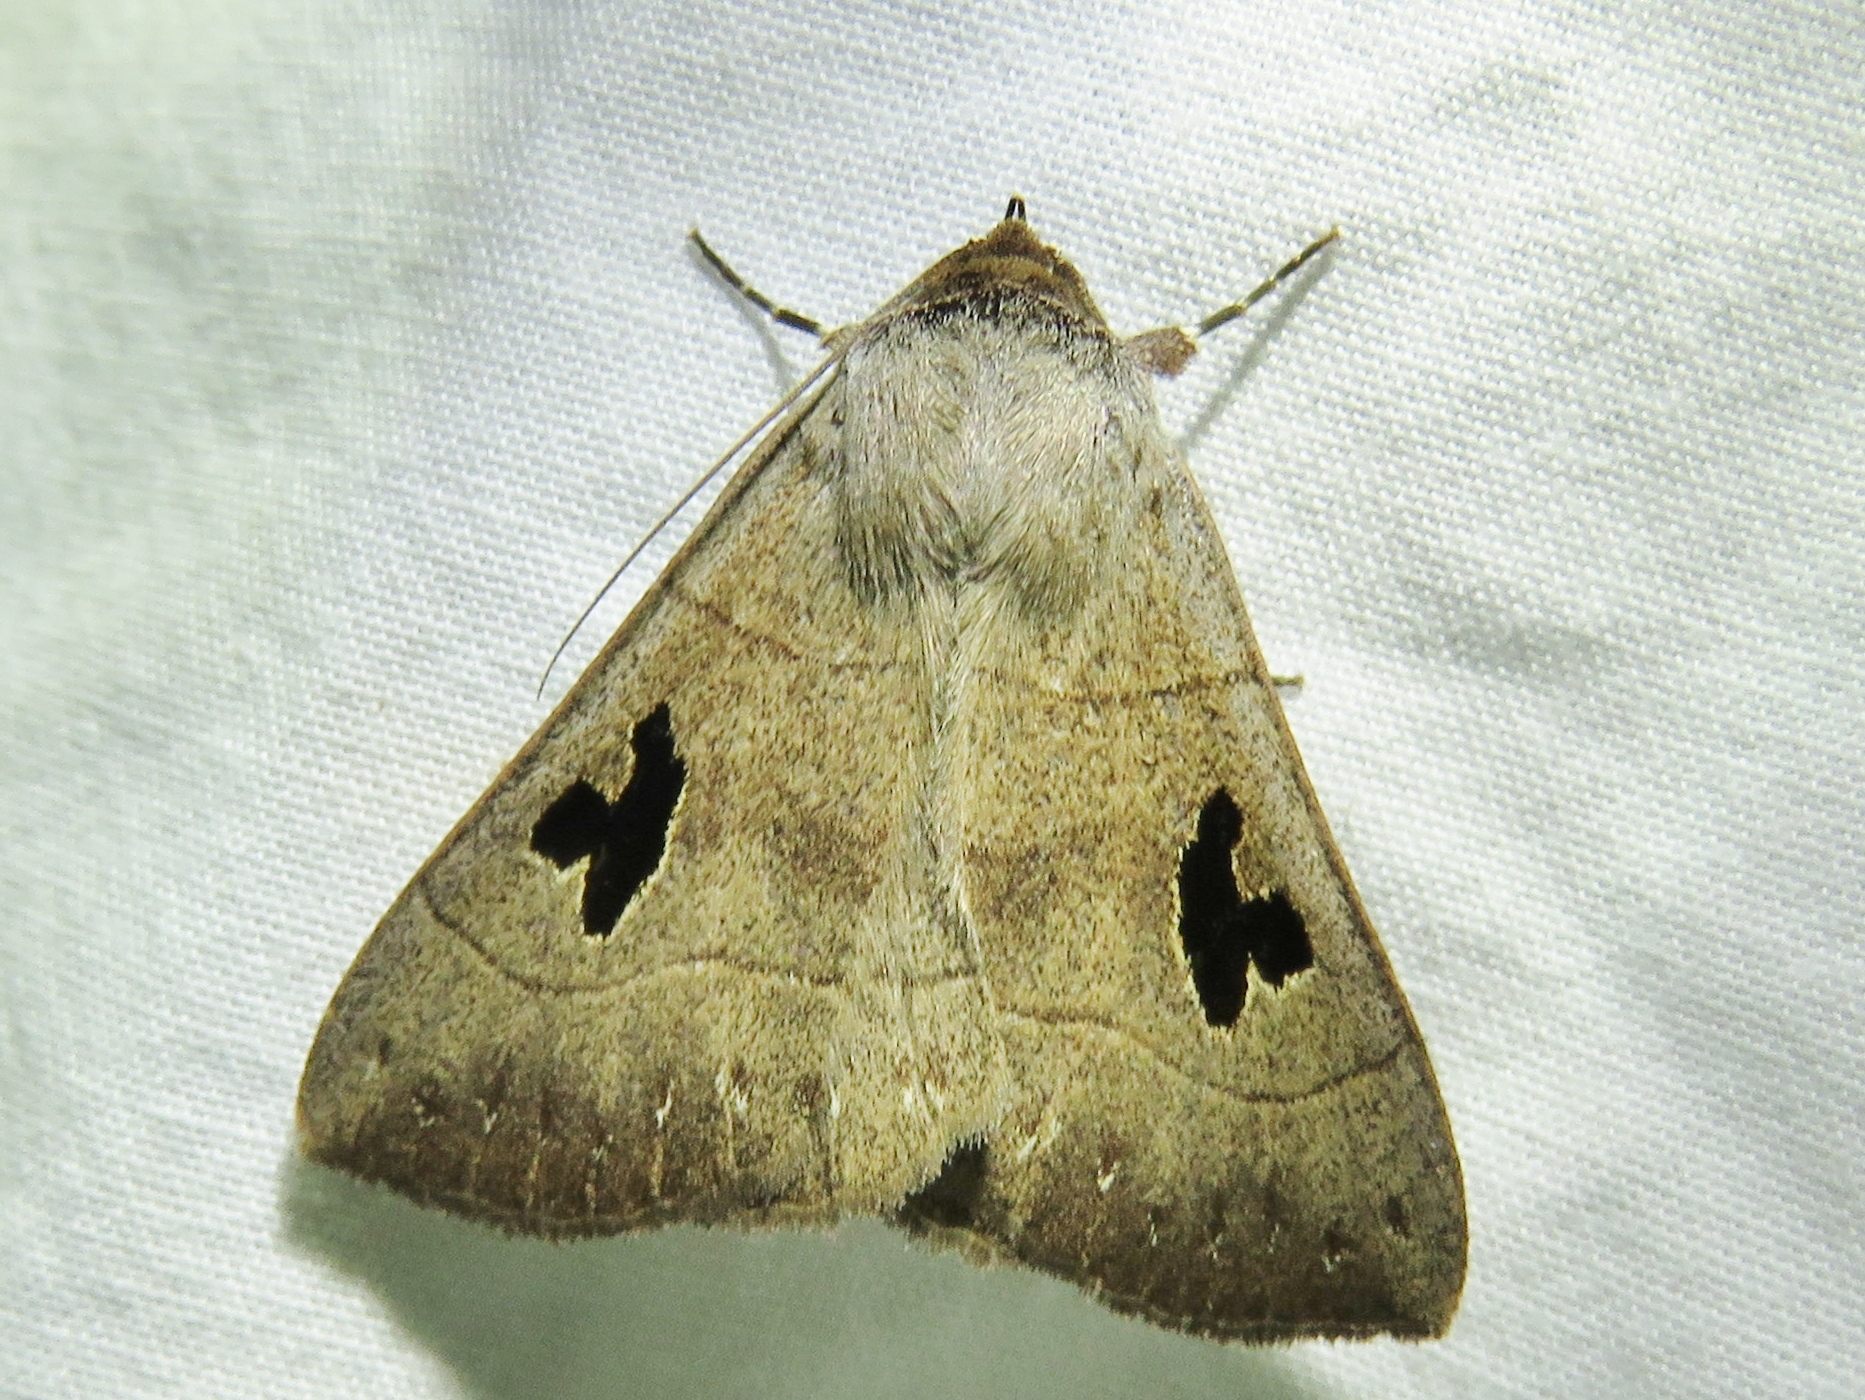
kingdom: Animalia
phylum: Arthropoda
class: Insecta
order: Lepidoptera
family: Erebidae
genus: Panopoda
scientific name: Panopoda carneicosta
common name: Brown panopoda moth
